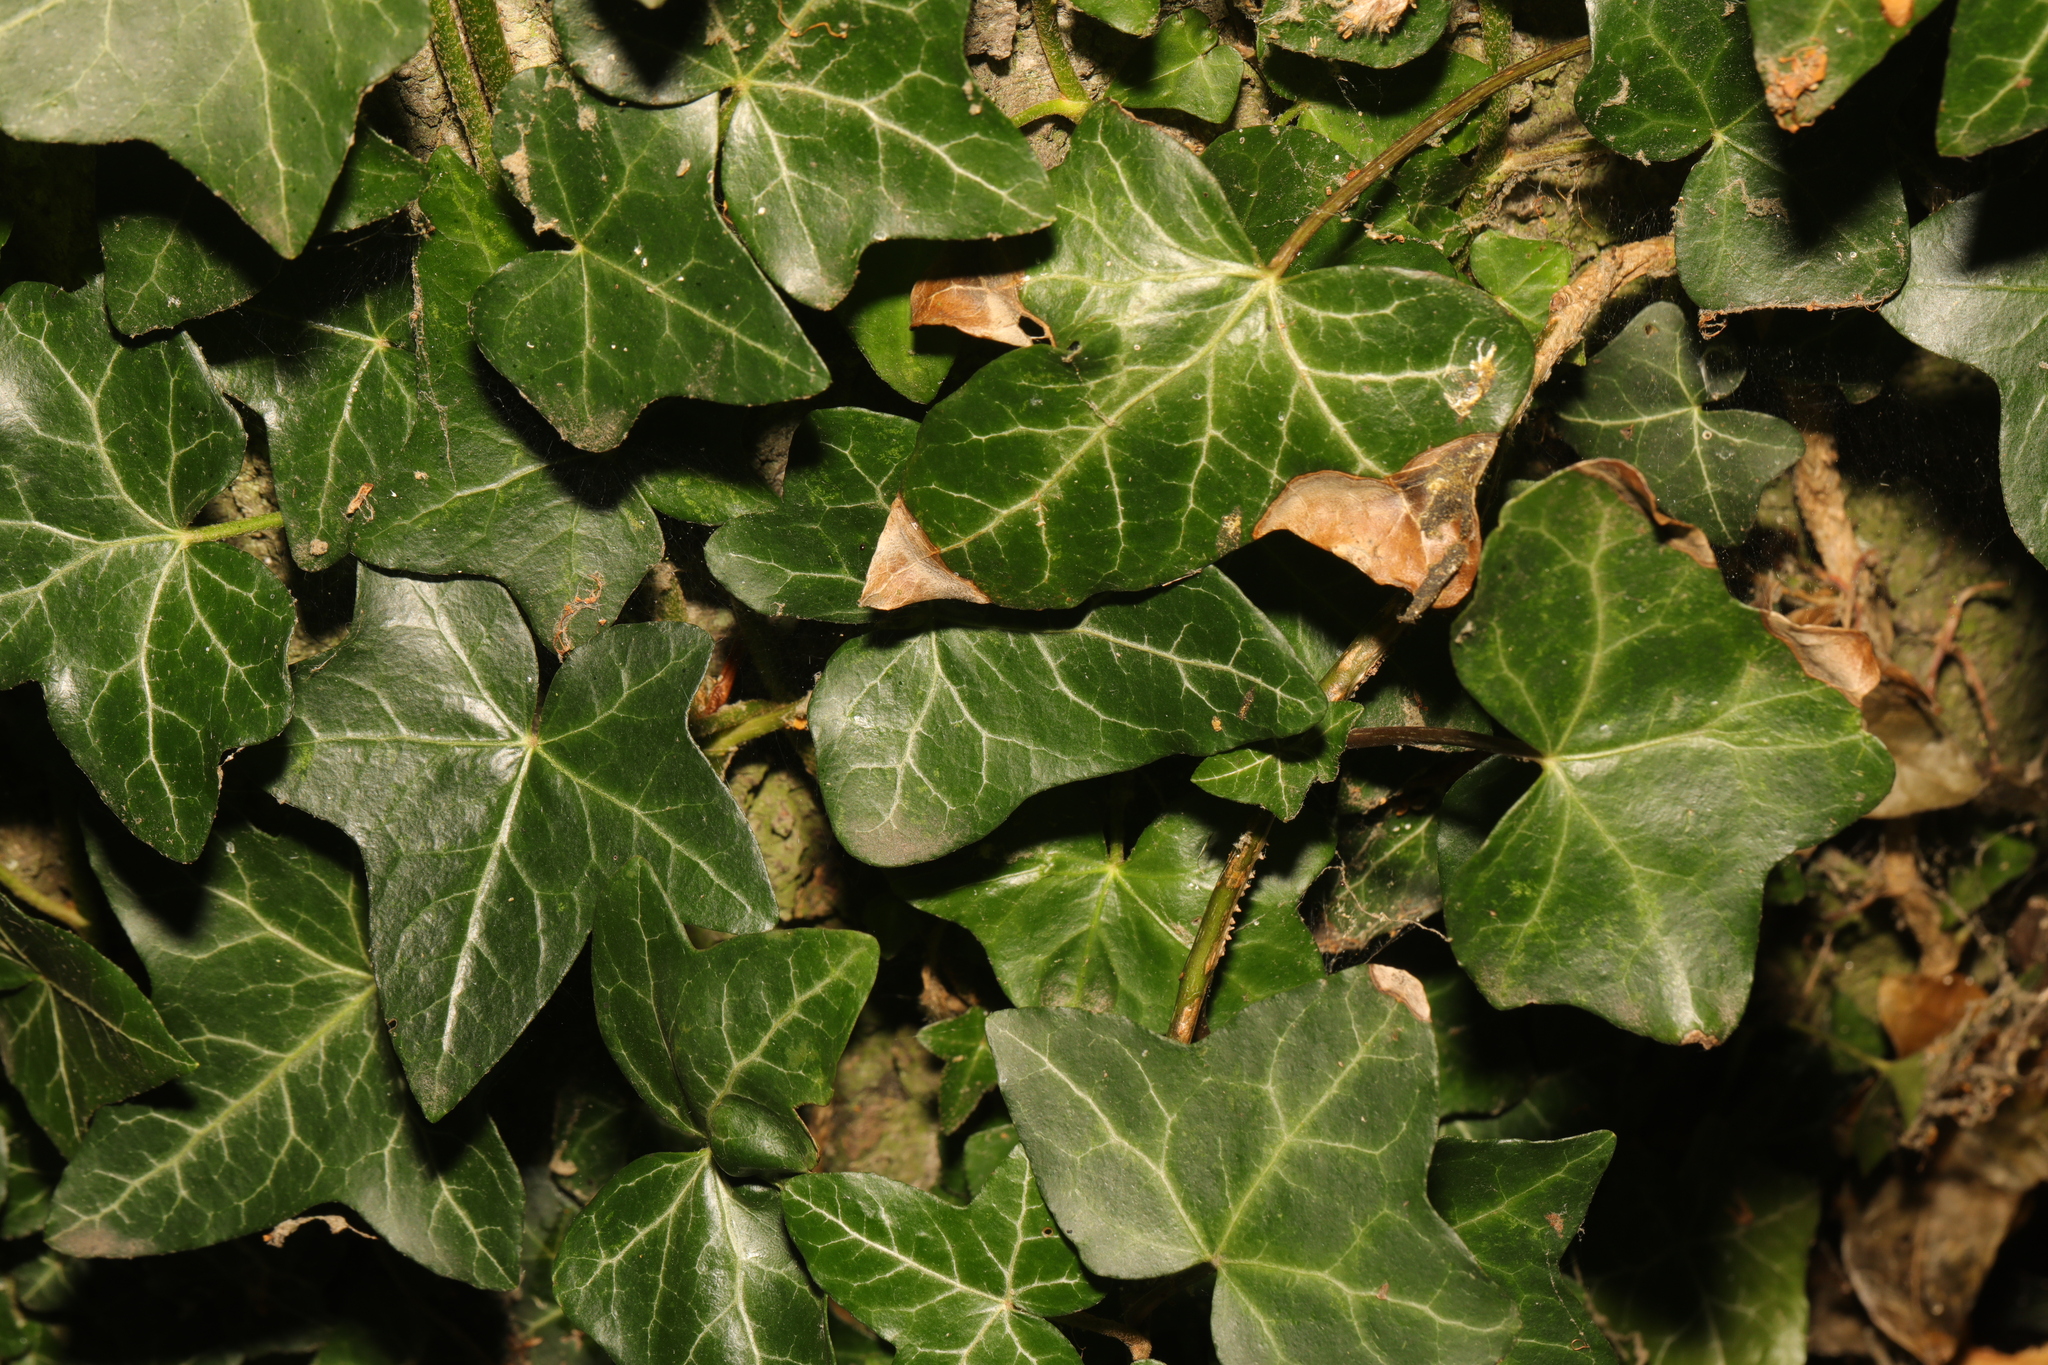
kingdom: Plantae
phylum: Tracheophyta
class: Magnoliopsida
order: Apiales
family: Araliaceae
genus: Hedera
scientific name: Hedera helix
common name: Ivy
